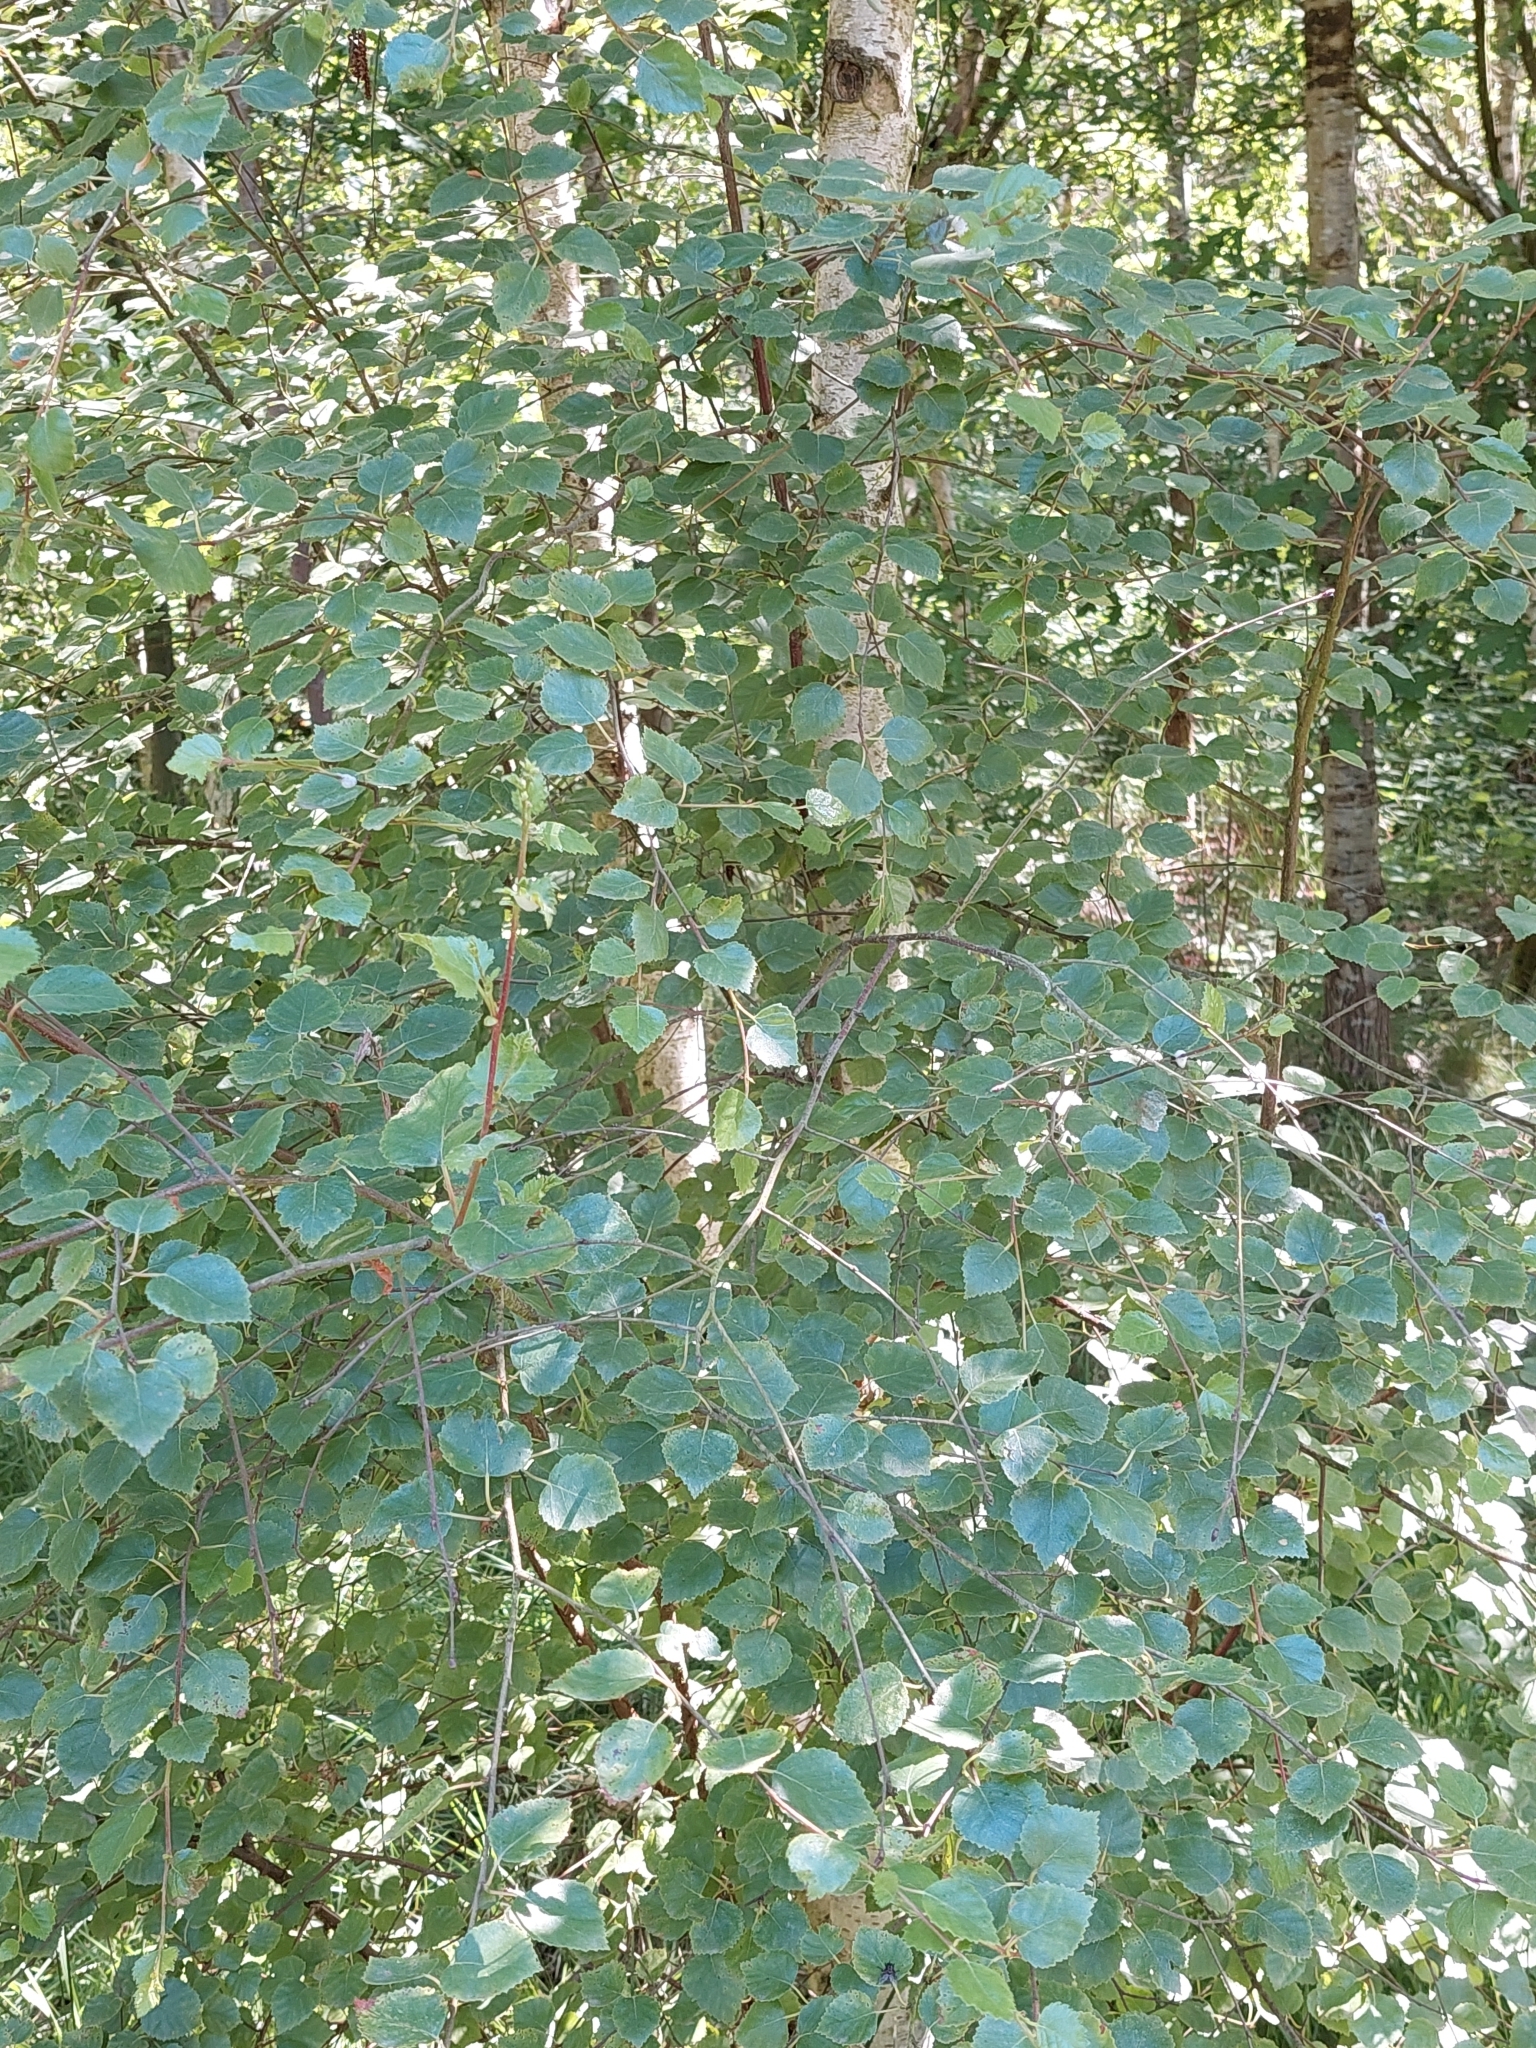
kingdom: Plantae
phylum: Tracheophyta
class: Magnoliopsida
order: Fagales
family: Betulaceae
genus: Betula
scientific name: Betula pendula
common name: Silver birch
